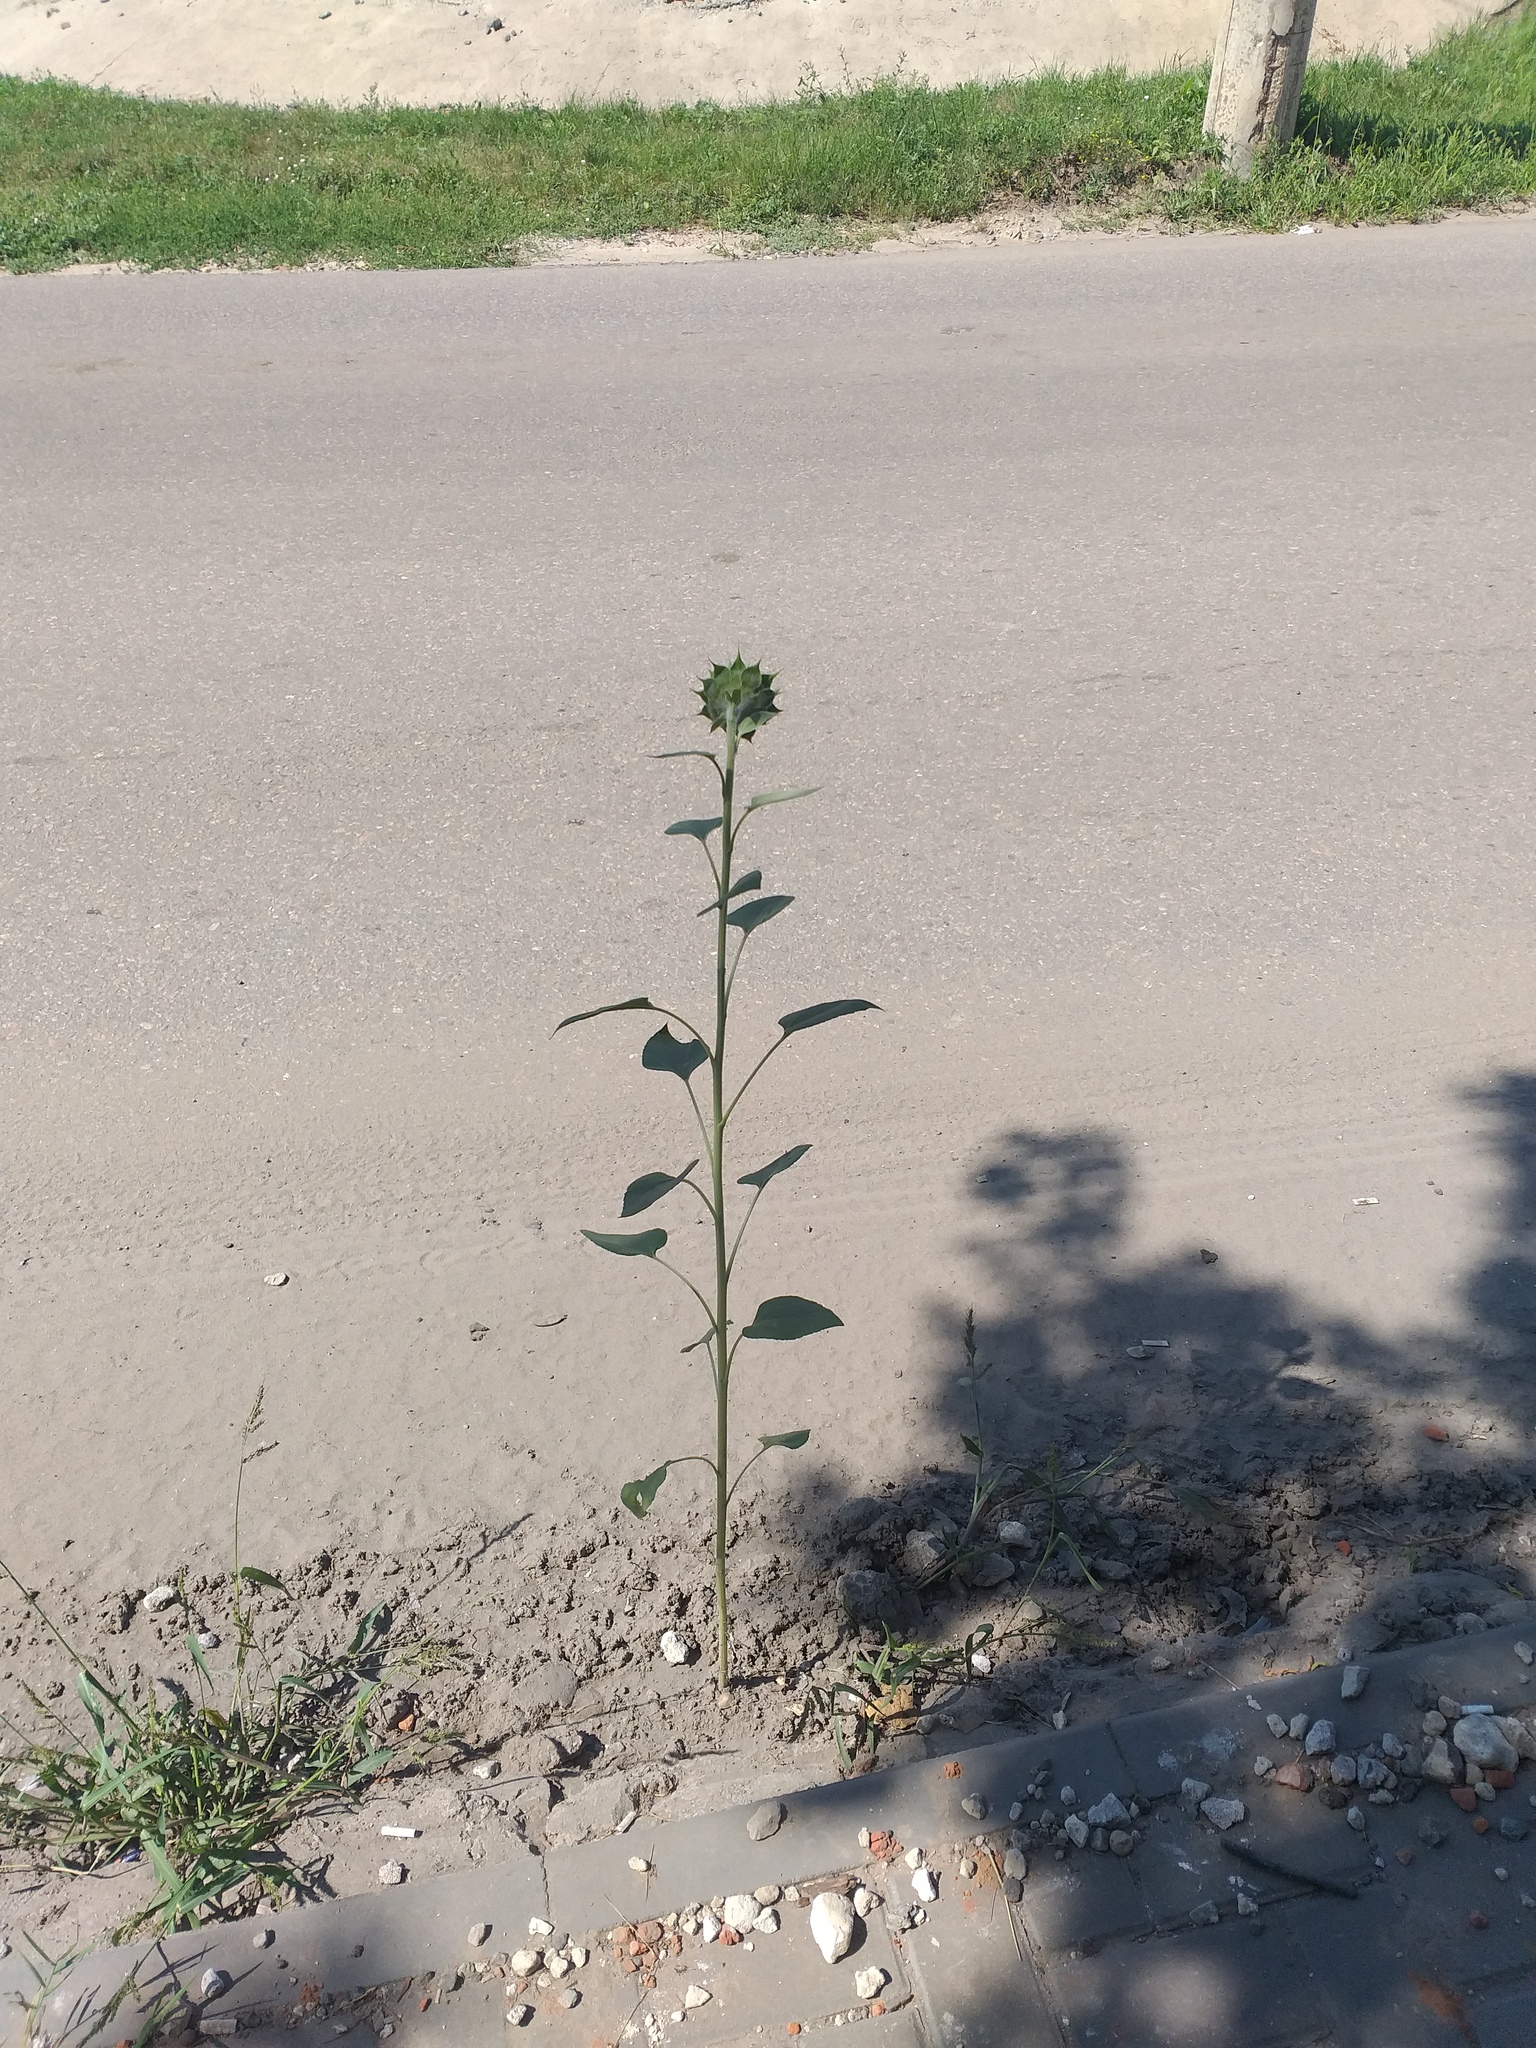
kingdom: Plantae
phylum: Tracheophyta
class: Magnoliopsida
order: Asterales
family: Asteraceae
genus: Helianthus
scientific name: Helianthus annuus
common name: Sunflower
